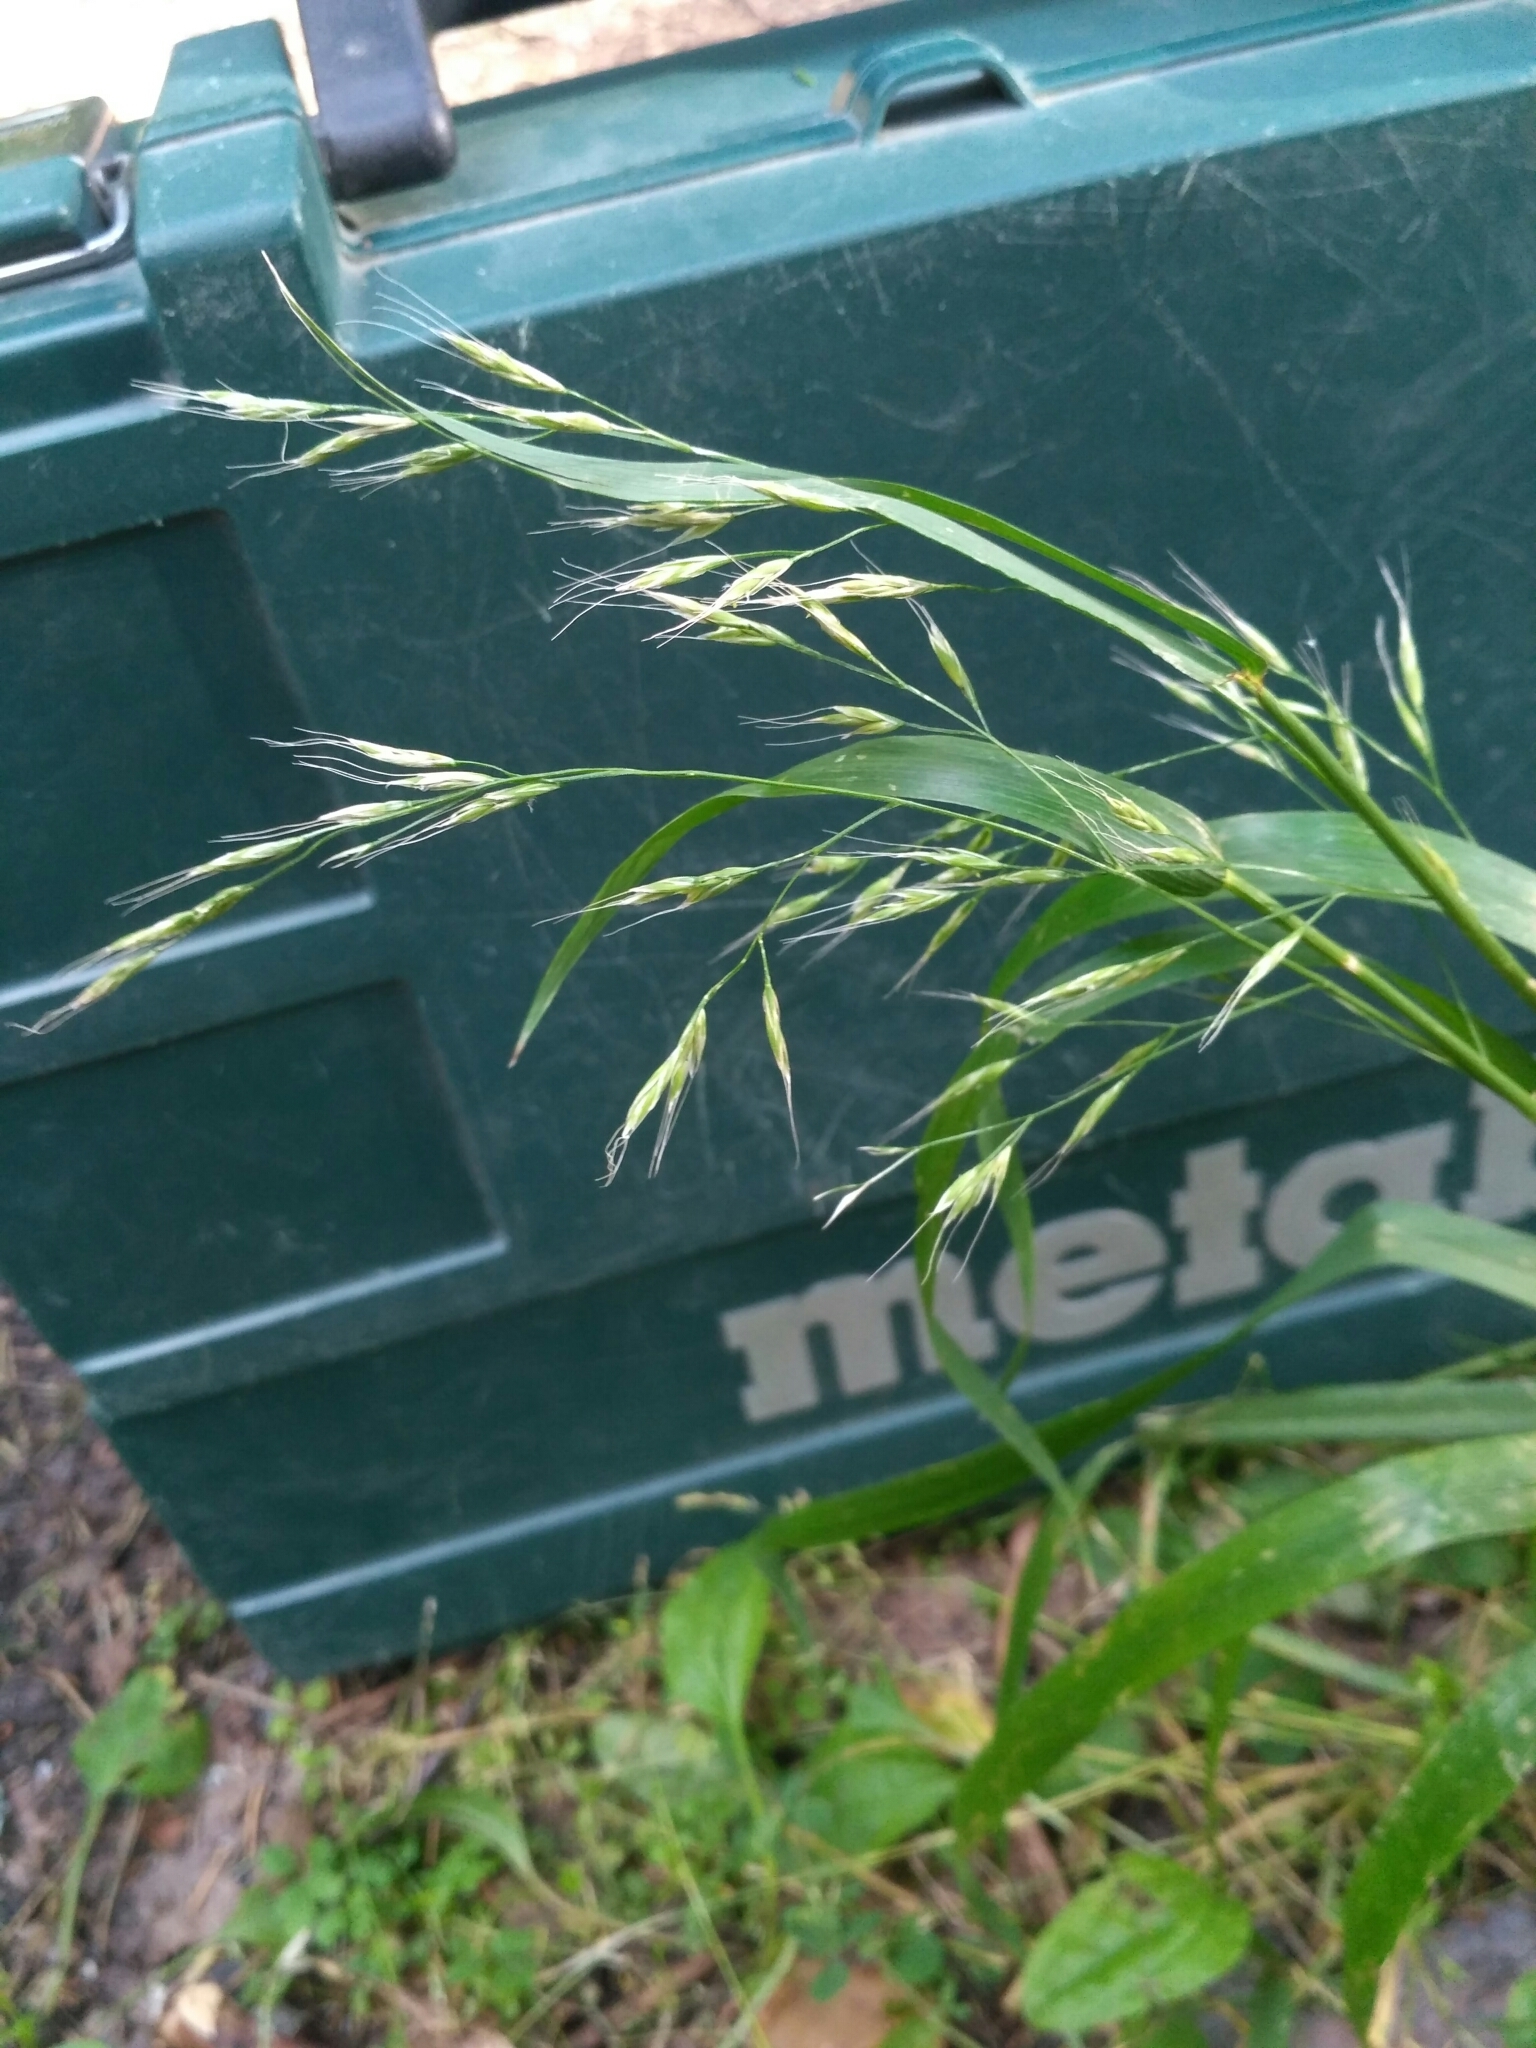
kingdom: Plantae
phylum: Tracheophyta
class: Liliopsida
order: Poales
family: Poaceae
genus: Lolium
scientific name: Lolium giganteum
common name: Giant fescue
